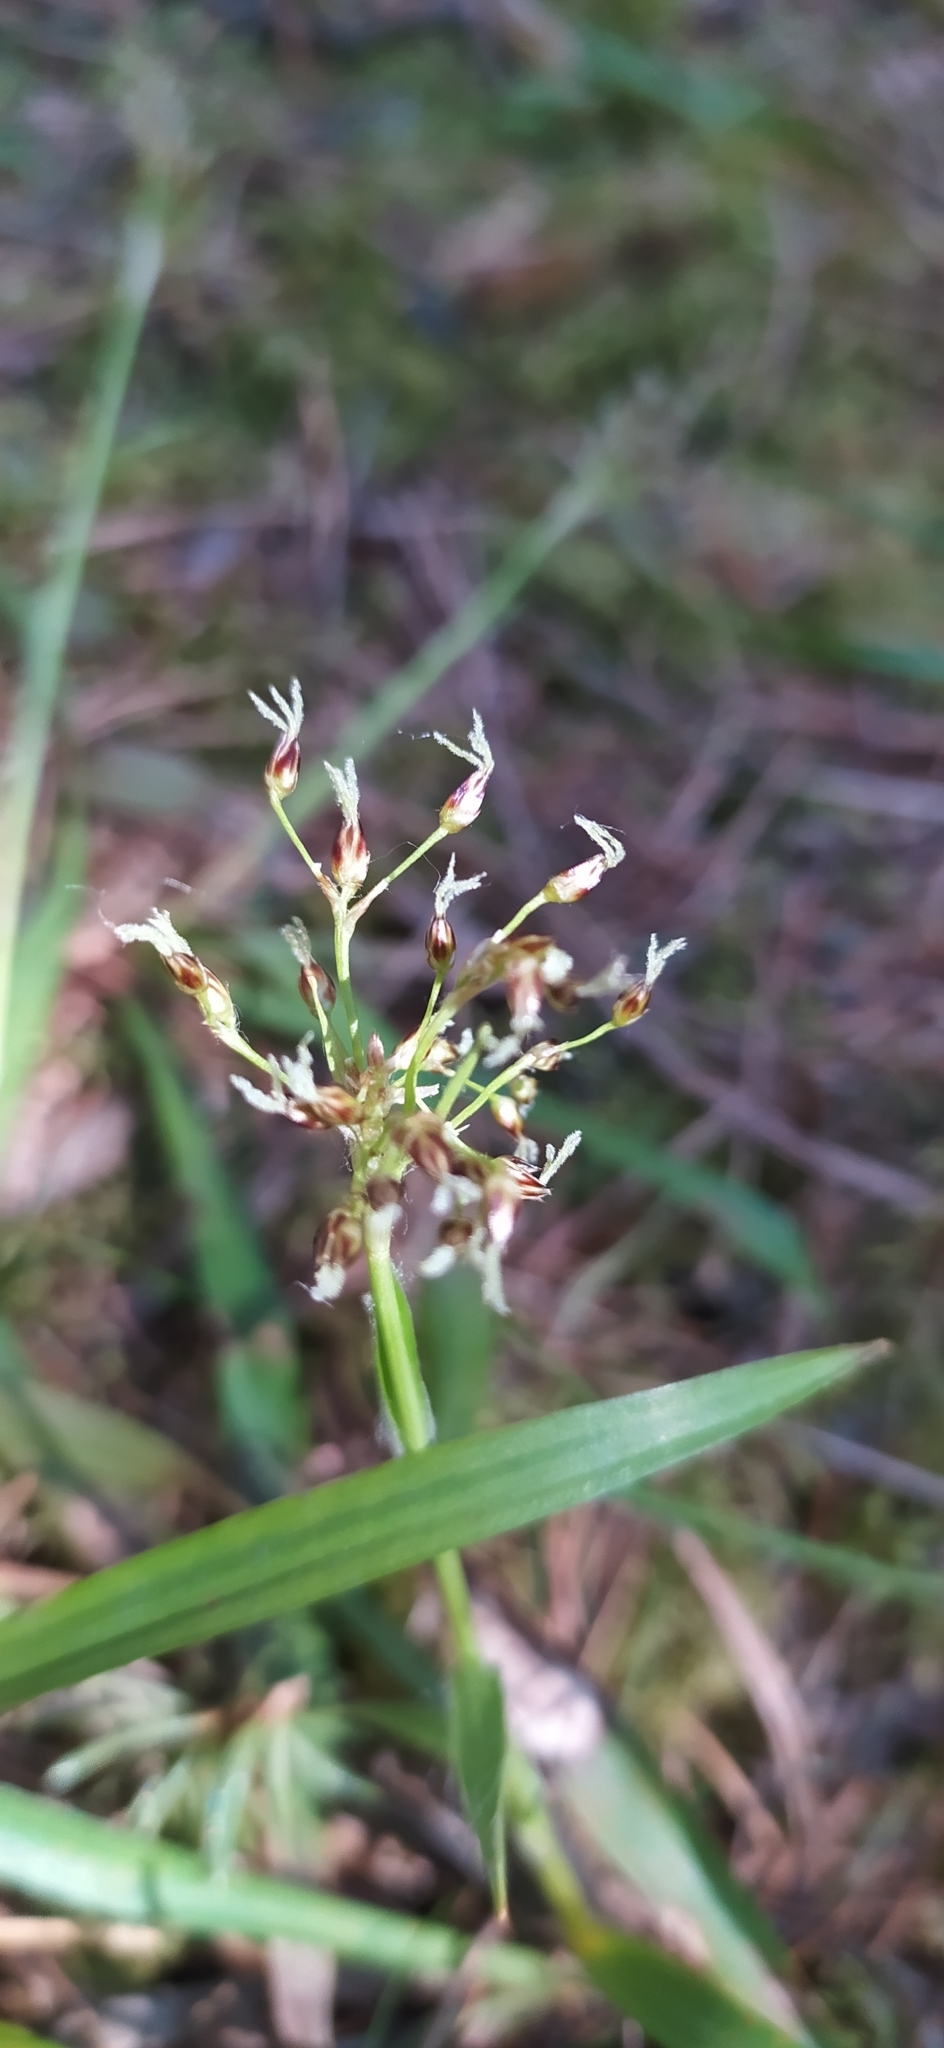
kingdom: Plantae
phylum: Tracheophyta
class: Liliopsida
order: Poales
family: Juncaceae
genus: Luzula
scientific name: Luzula pilosa
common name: Hairy wood-rush
